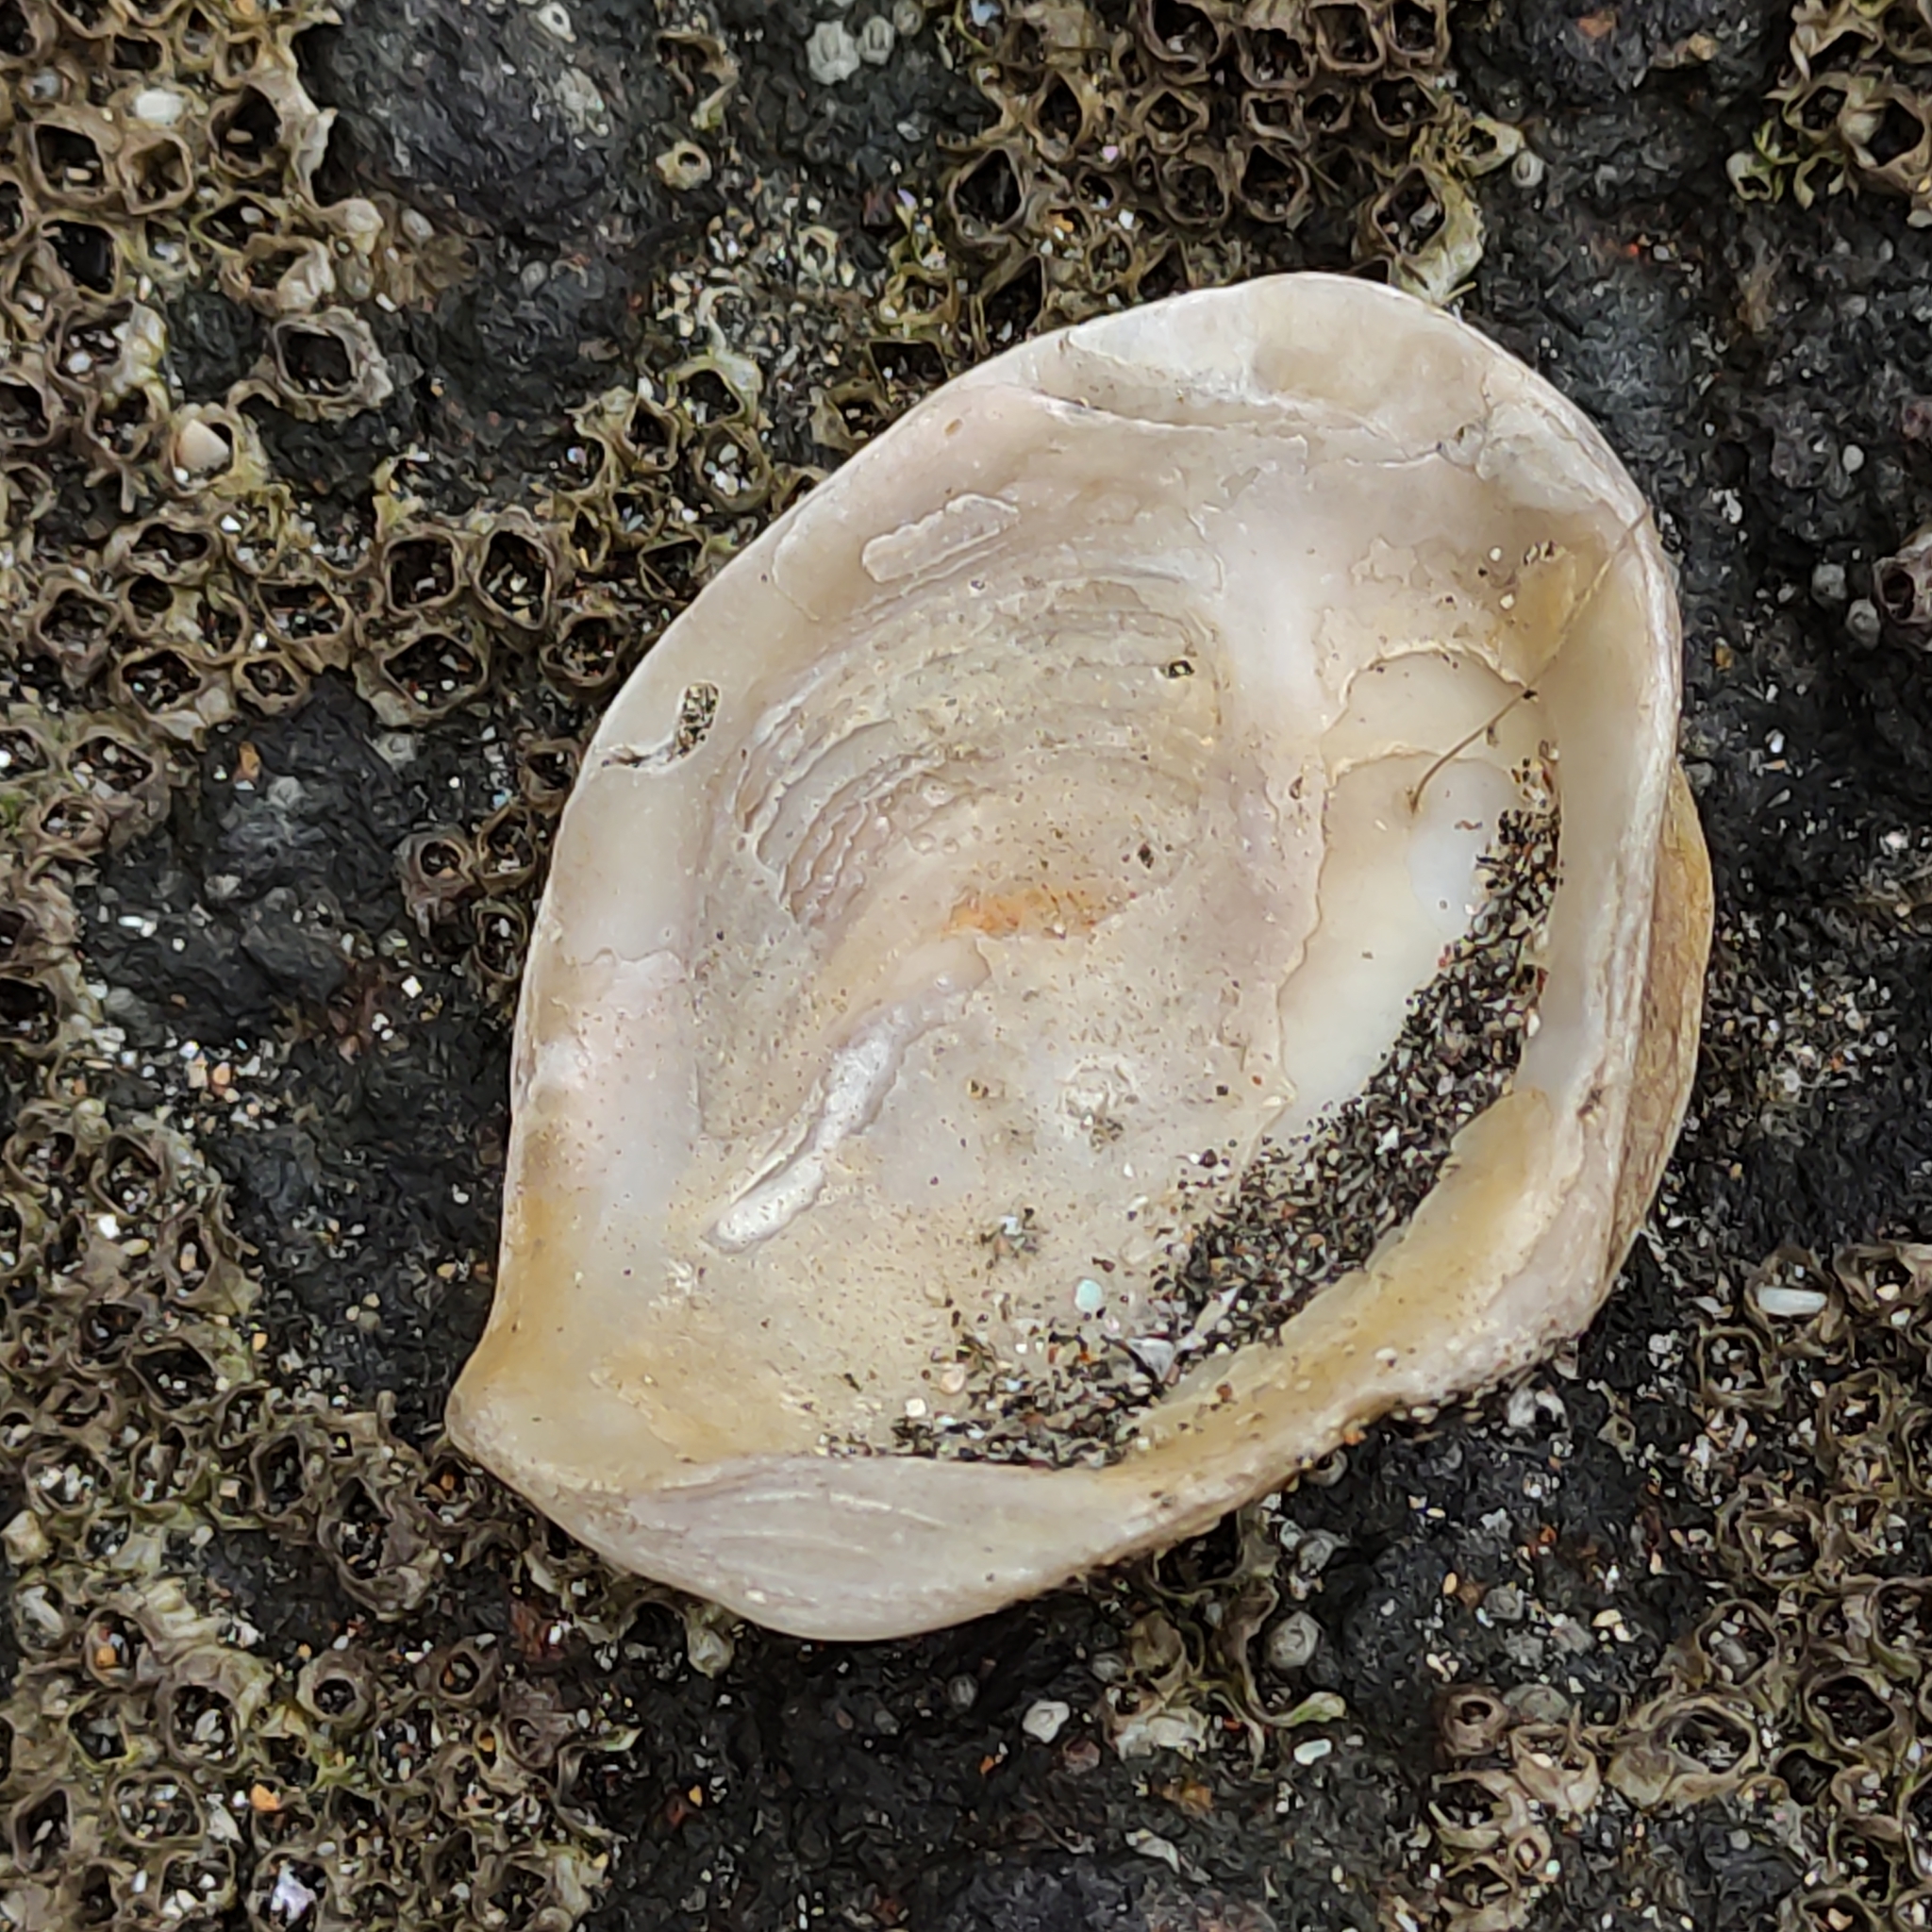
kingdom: Animalia
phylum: Mollusca
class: Bivalvia
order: Ostreida
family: Ostreidae
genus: Ostrea
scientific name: Ostrea chilensis
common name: Chilean oyster
